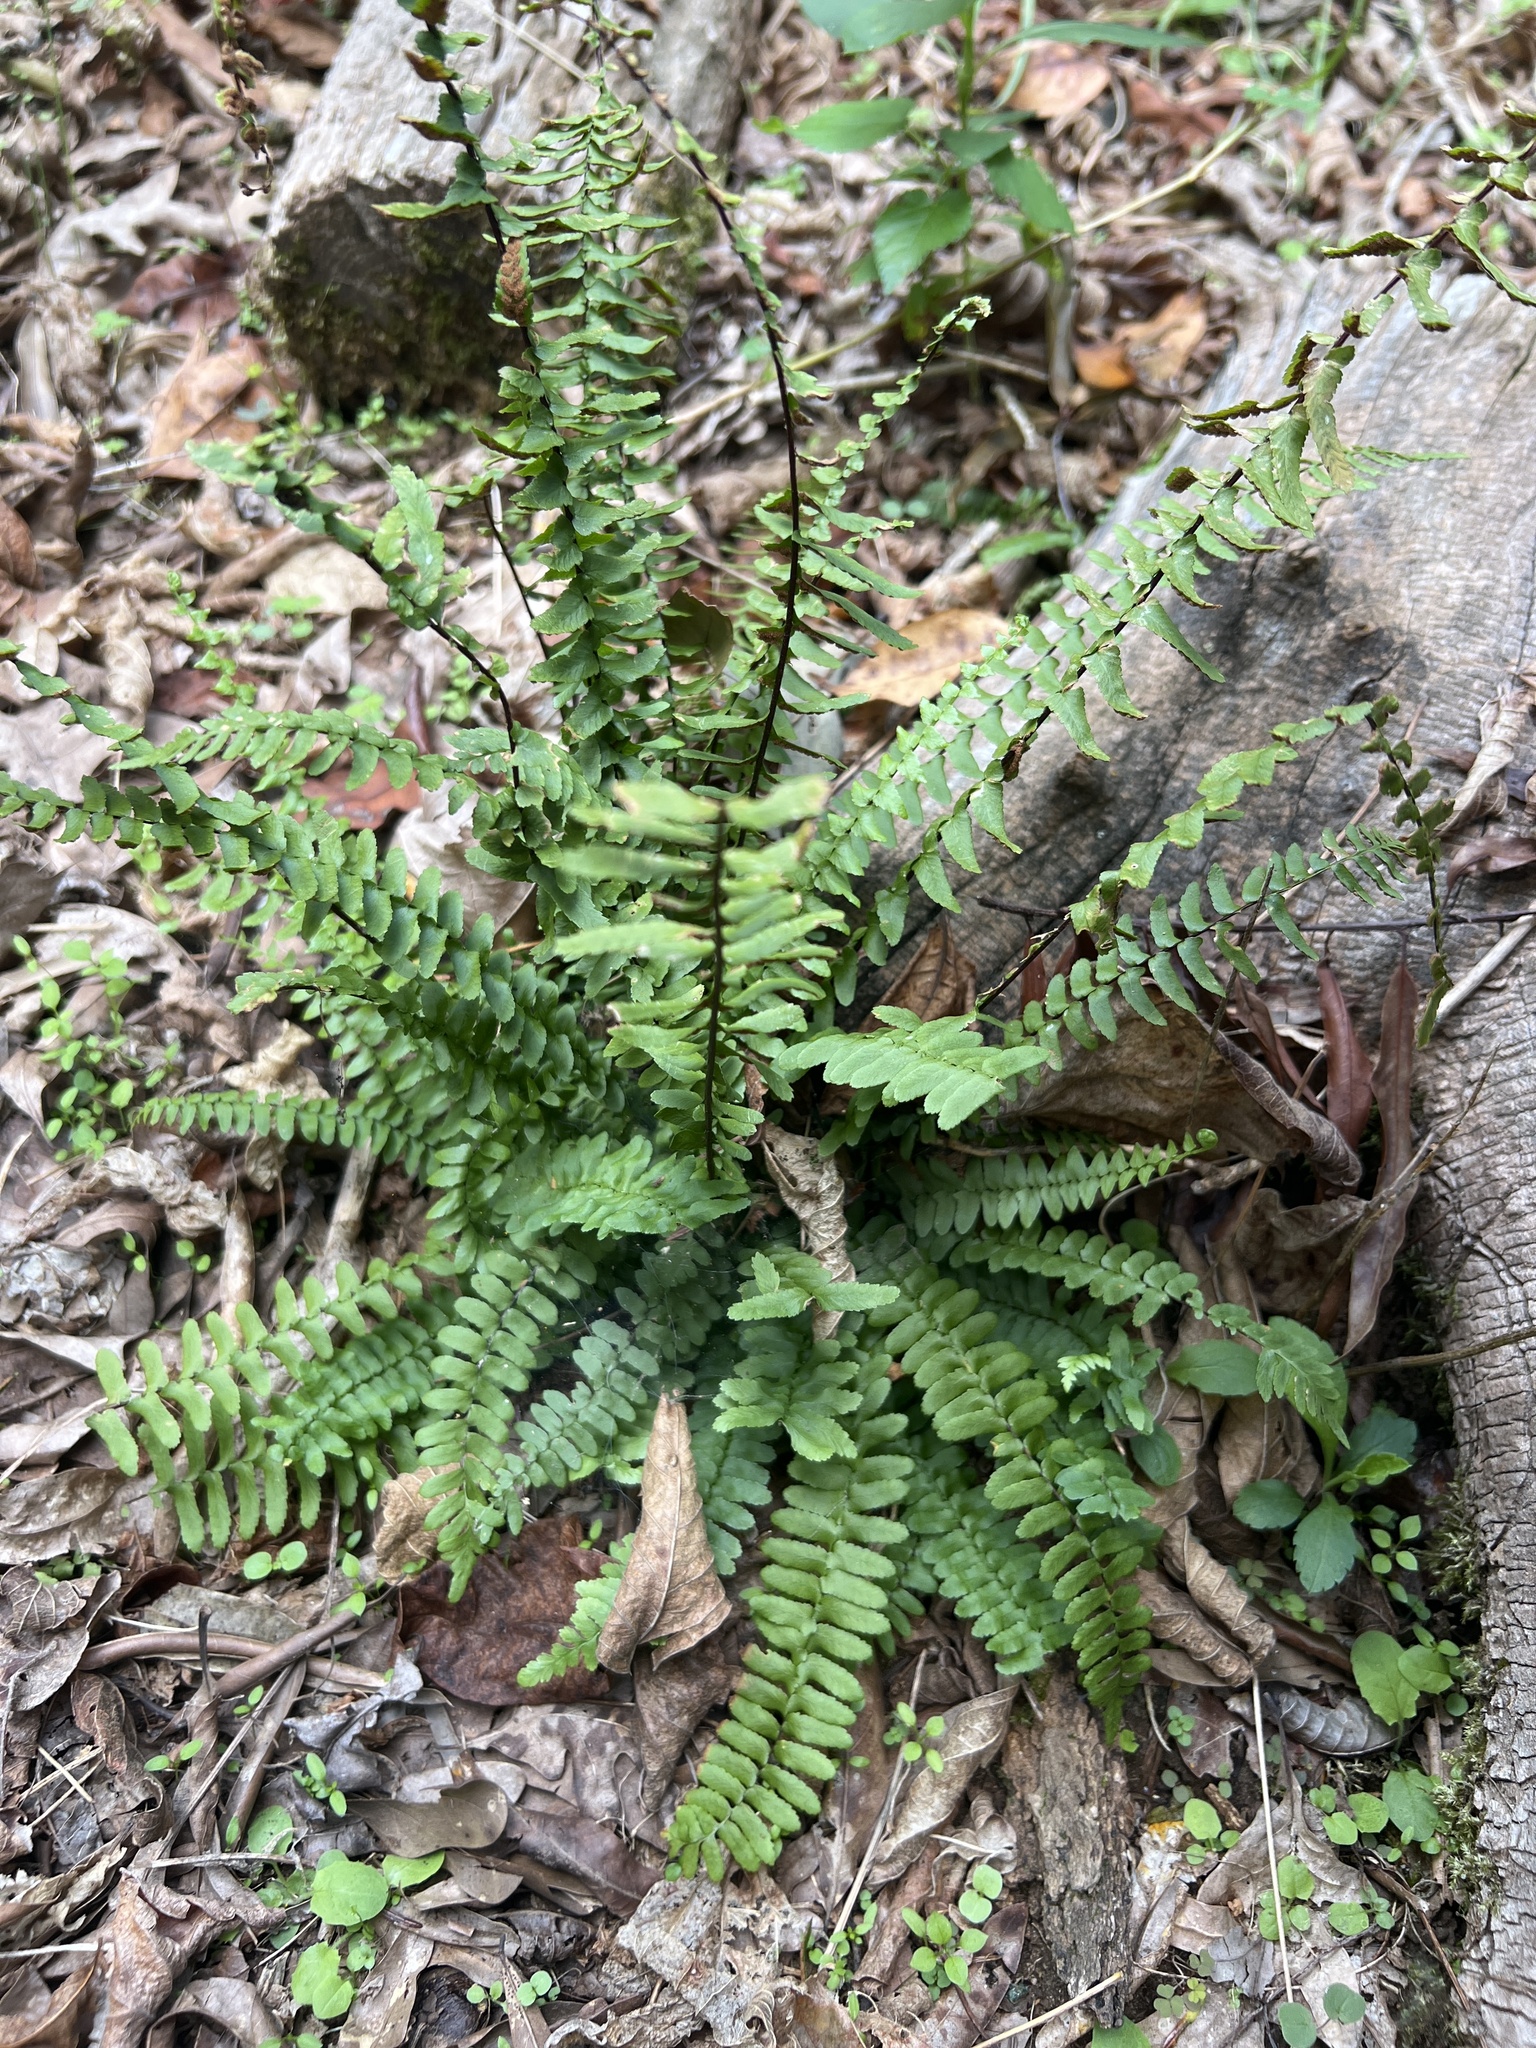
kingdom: Plantae
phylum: Tracheophyta
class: Polypodiopsida
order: Polypodiales
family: Aspleniaceae
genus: Asplenium
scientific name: Asplenium platyneuron
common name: Ebony spleenwort
